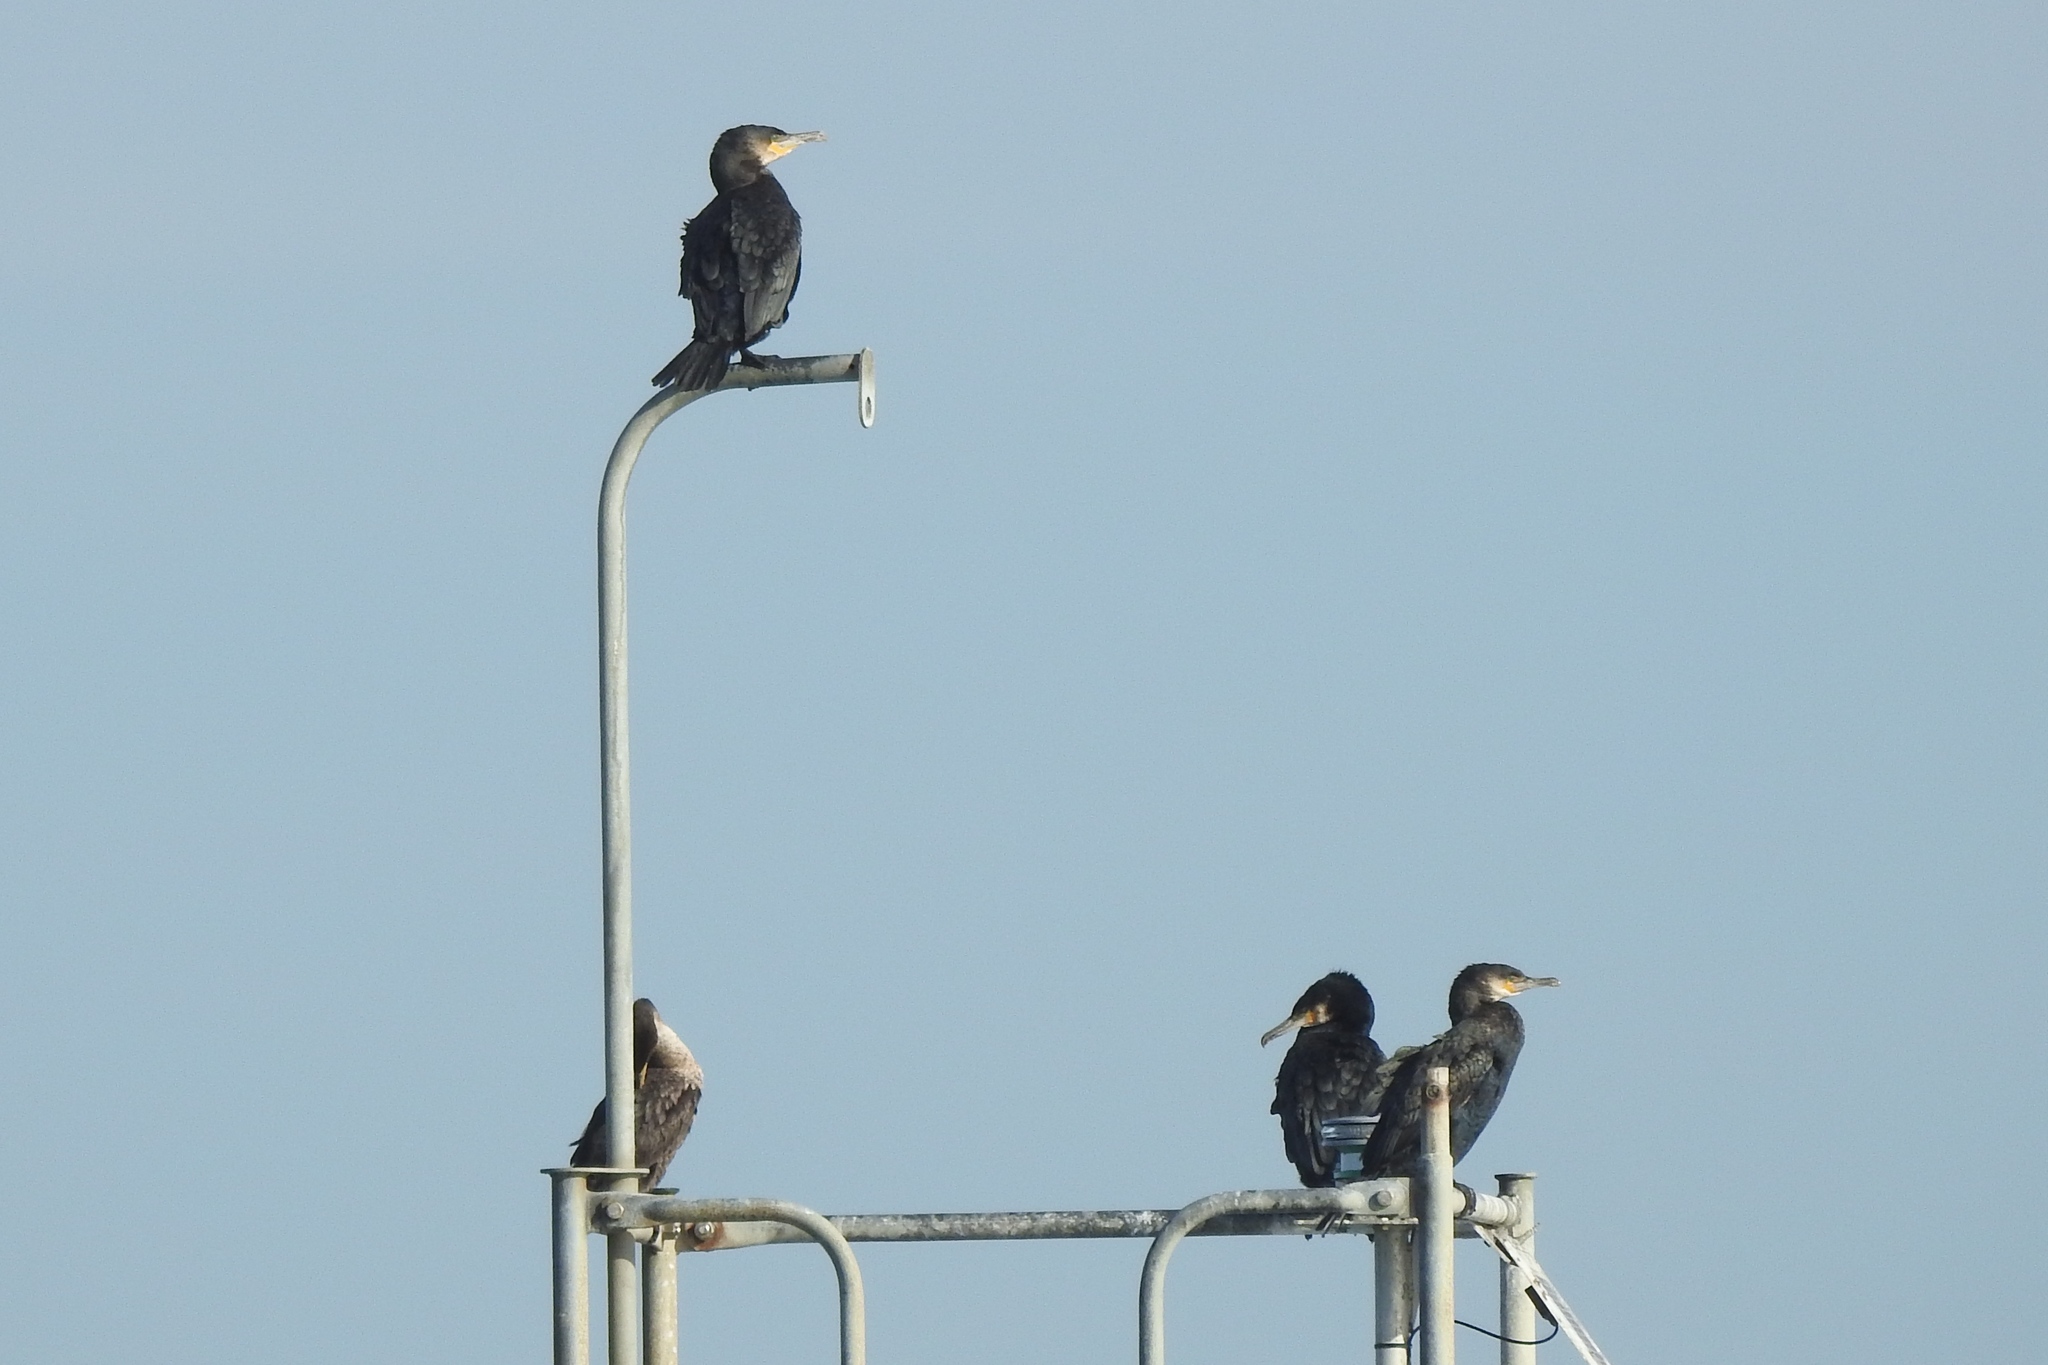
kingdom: Animalia
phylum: Chordata
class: Aves
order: Suliformes
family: Phalacrocoracidae
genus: Phalacrocorax
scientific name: Phalacrocorax carbo
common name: Great cormorant
